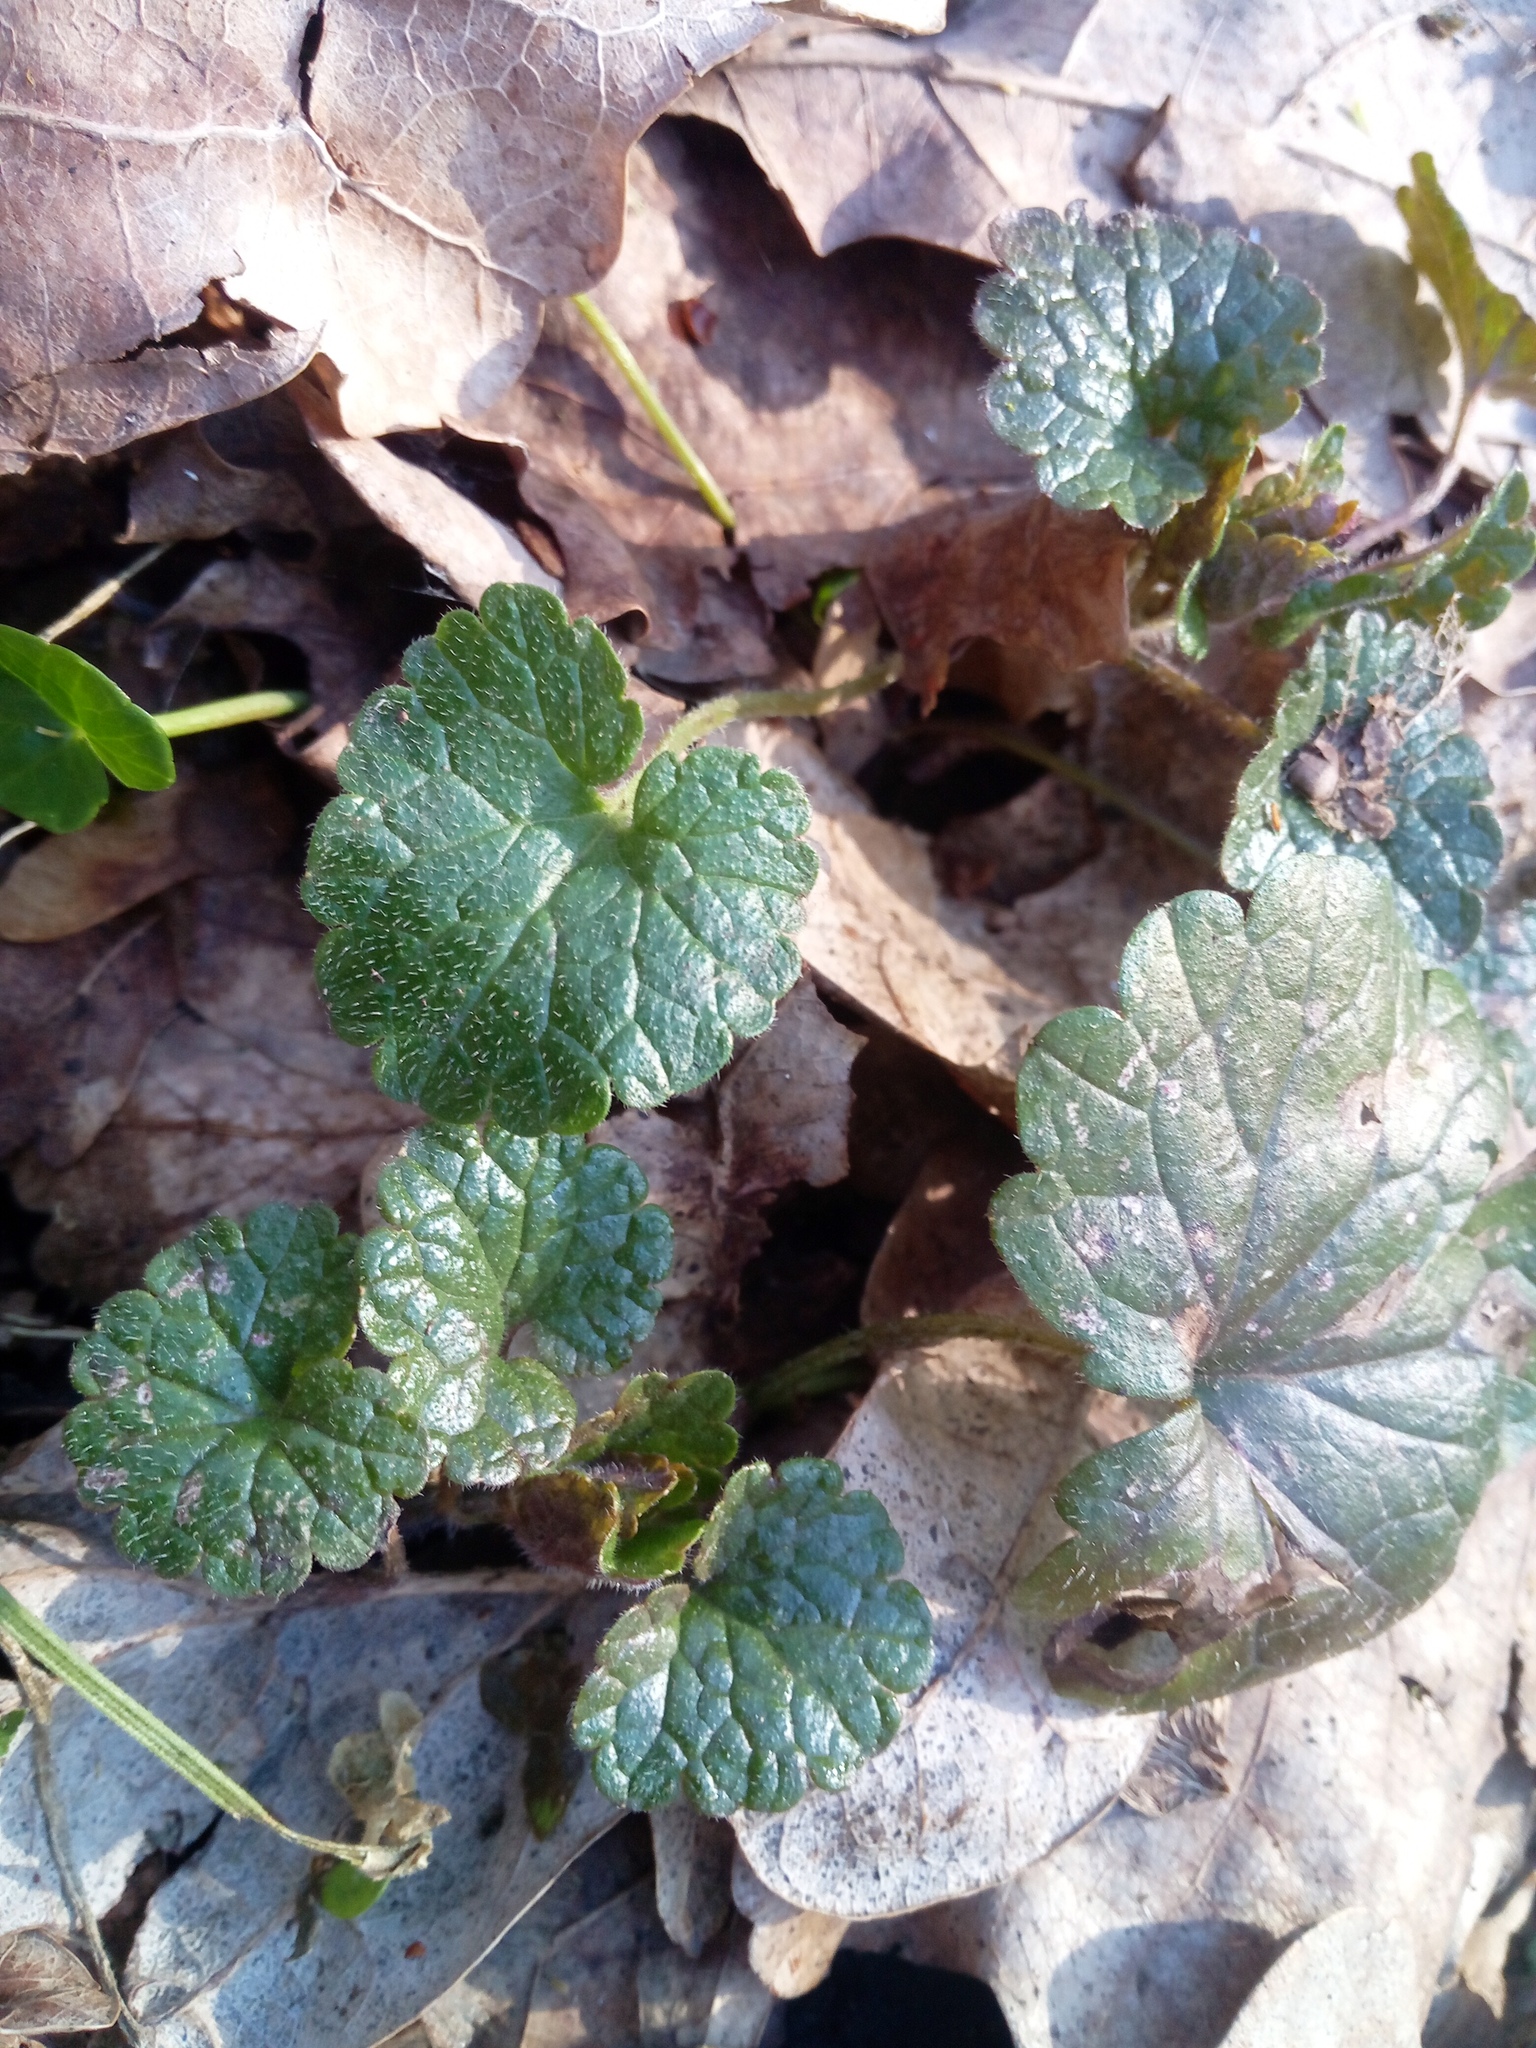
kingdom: Plantae
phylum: Tracheophyta
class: Magnoliopsida
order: Lamiales
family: Lamiaceae
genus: Glechoma
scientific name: Glechoma hirsuta
